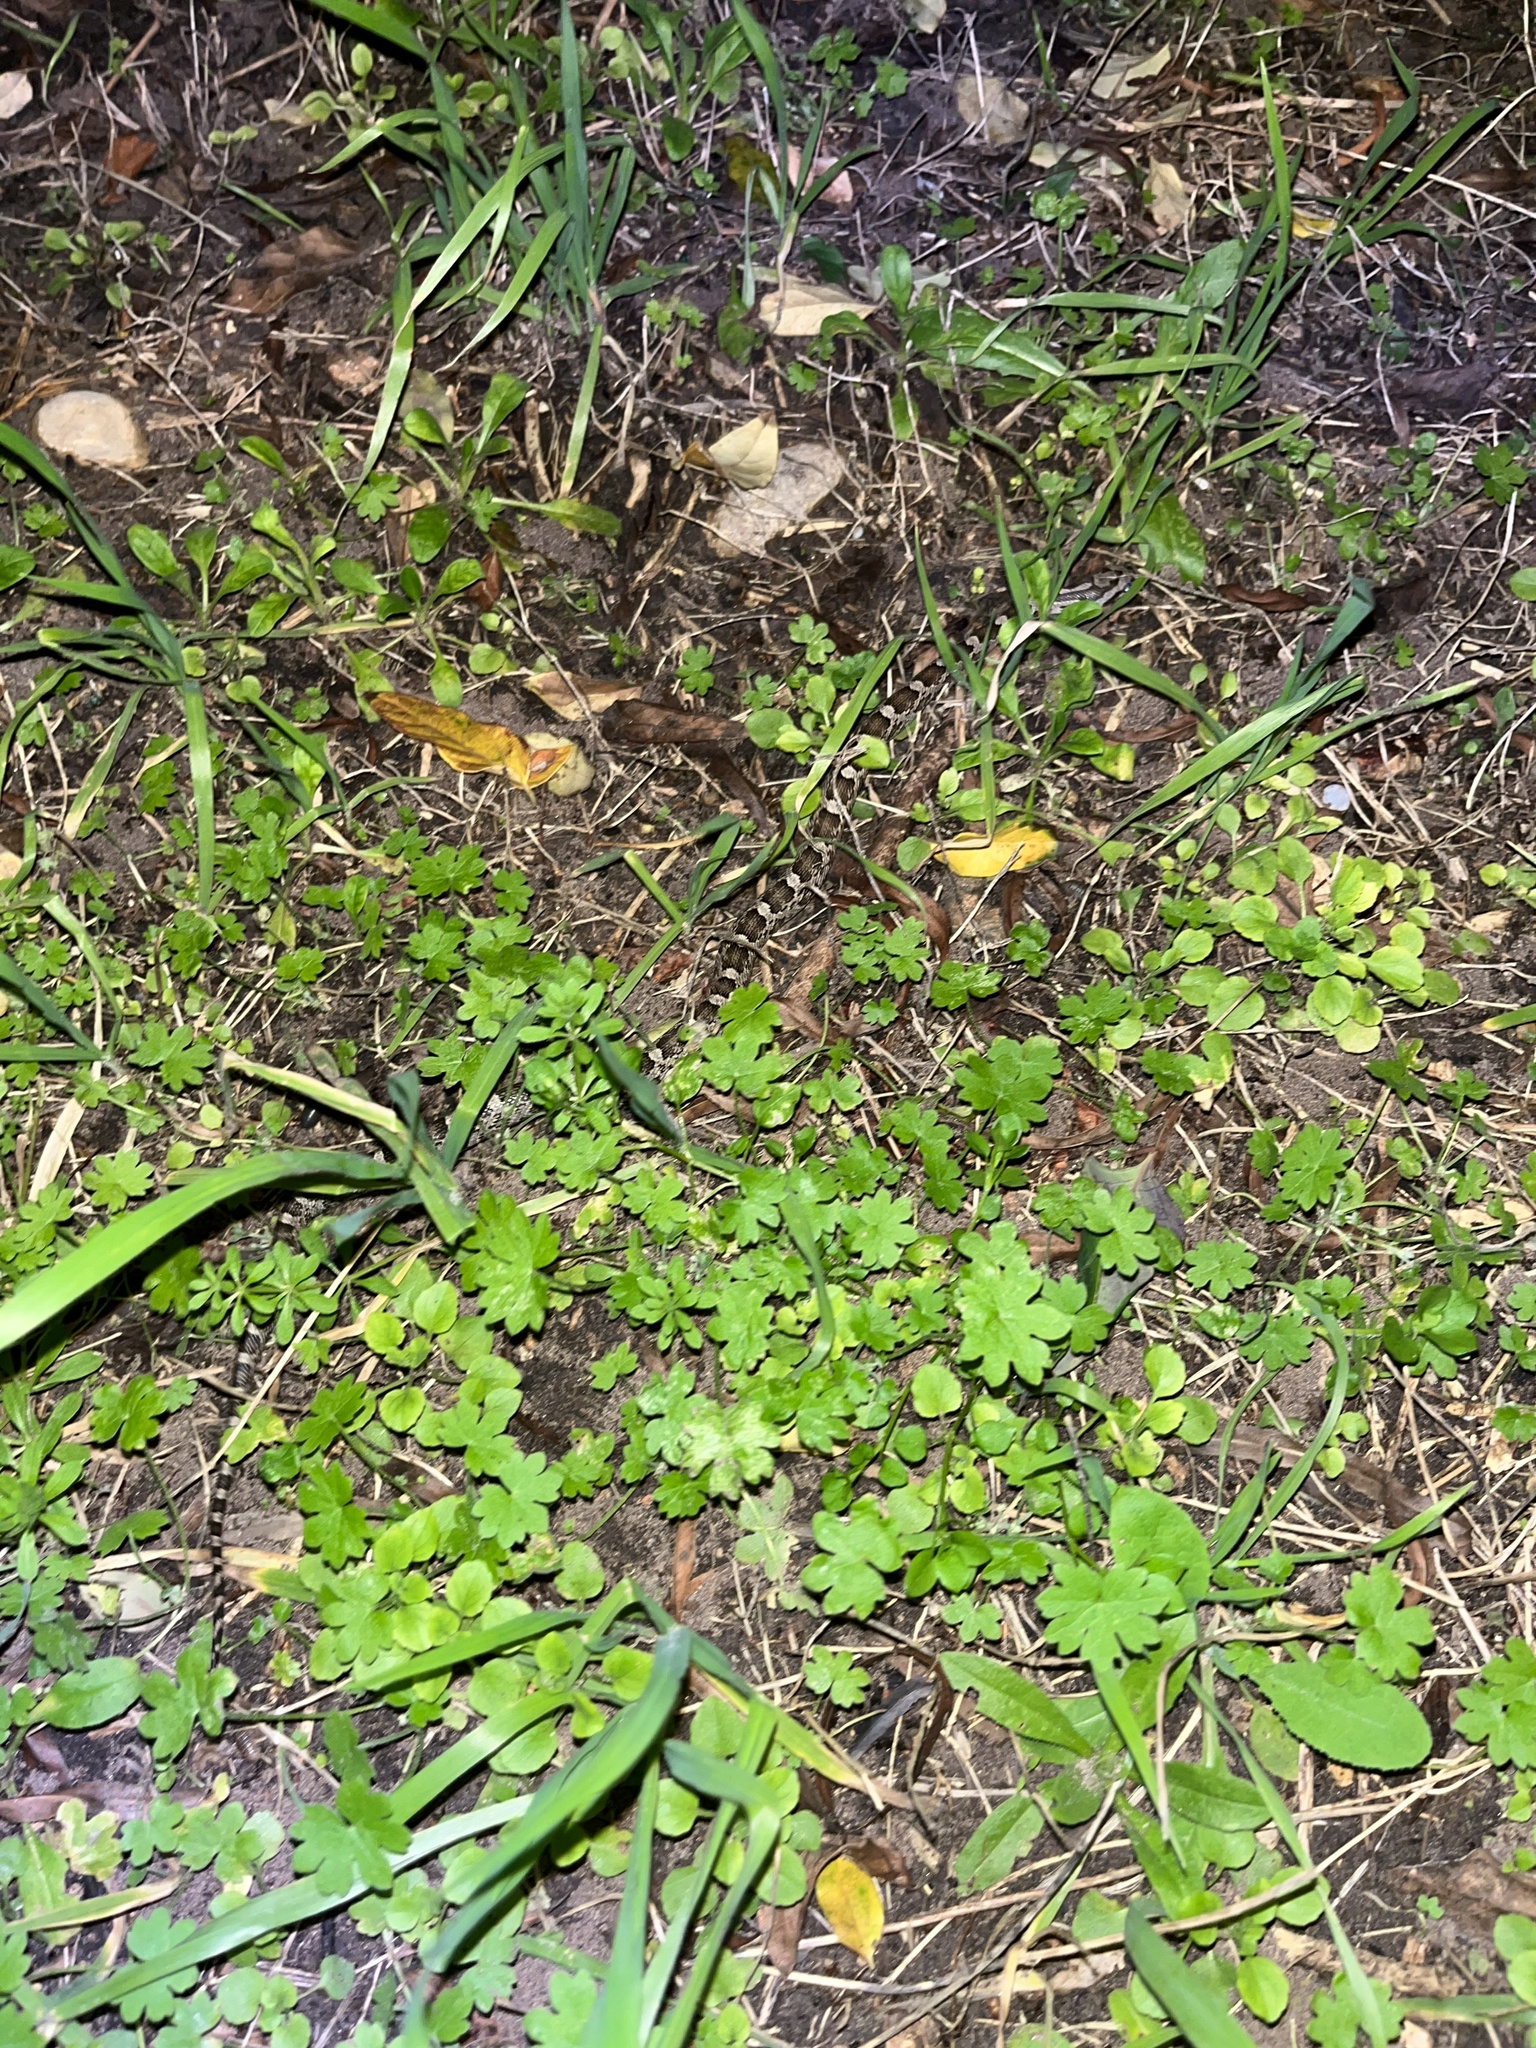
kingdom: Animalia
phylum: Chordata
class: Squamata
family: Colubridae
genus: Pantherophis
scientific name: Pantherophis obsoletus
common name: Black rat snake
